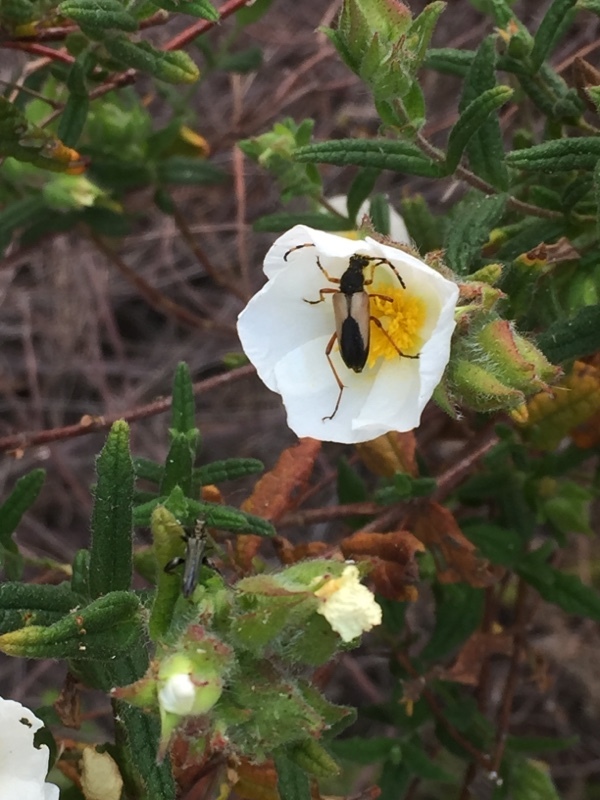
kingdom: Animalia
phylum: Arthropoda
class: Insecta
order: Coleoptera
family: Cerambycidae
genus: Stictoleptura
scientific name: Stictoleptura stragulata
